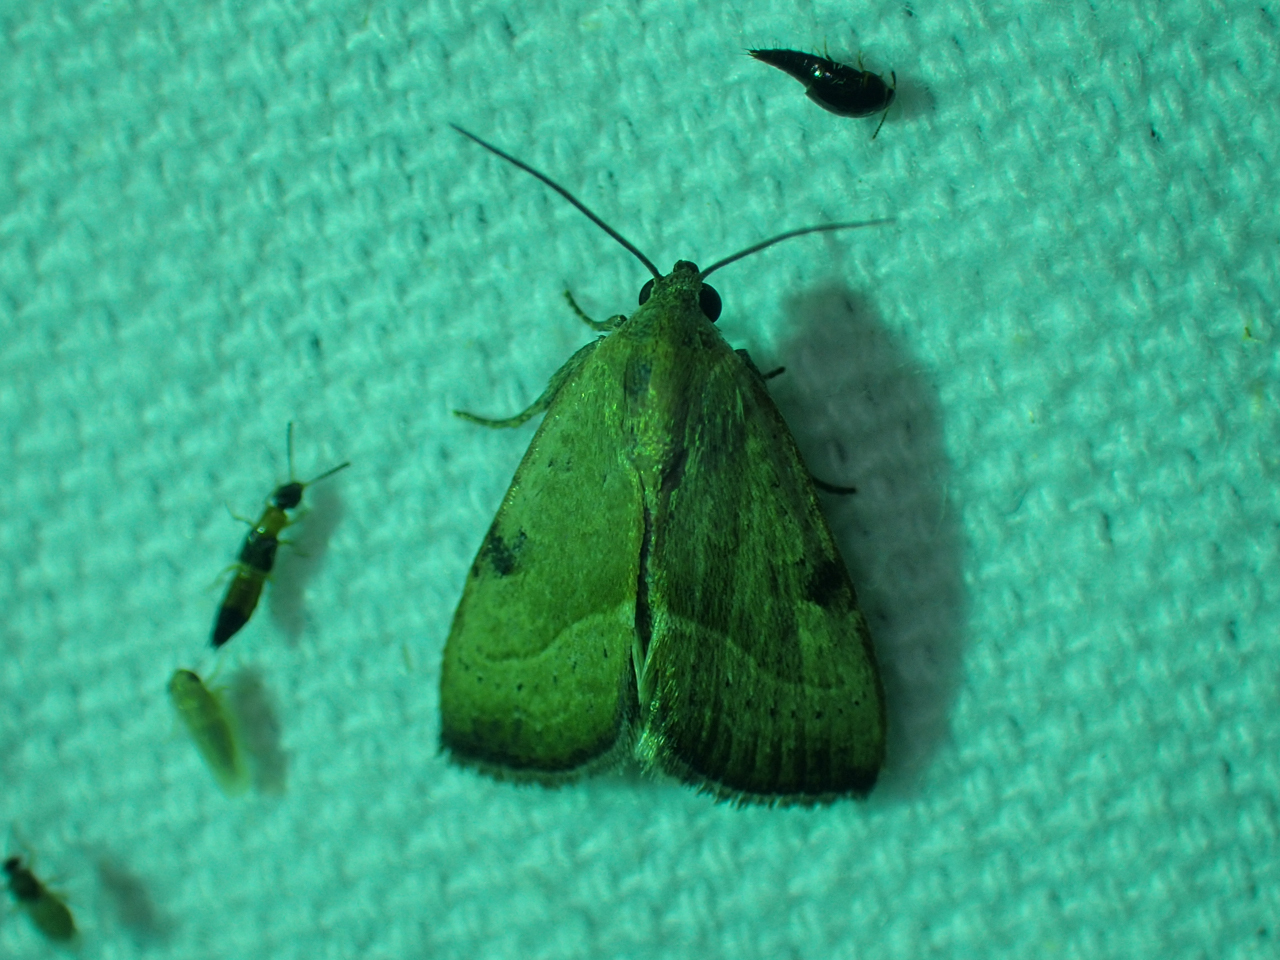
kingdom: Animalia
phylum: Arthropoda
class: Insecta
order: Lepidoptera
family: Noctuidae
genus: Galgula
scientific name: Galgula partita
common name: Wedgeling
